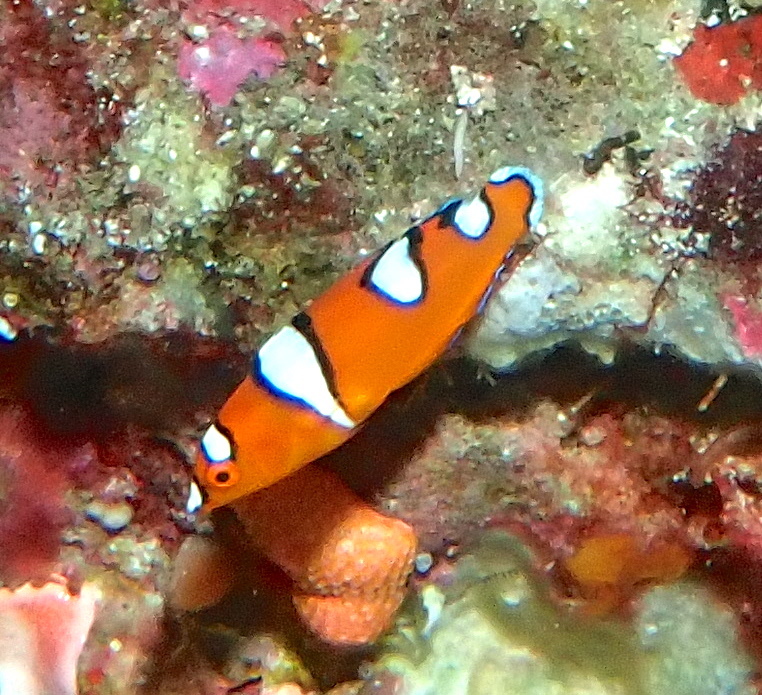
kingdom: Animalia
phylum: Chordata
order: Perciformes
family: Labridae
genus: Coris
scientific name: Coris gaimard
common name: Yellowtail coris
